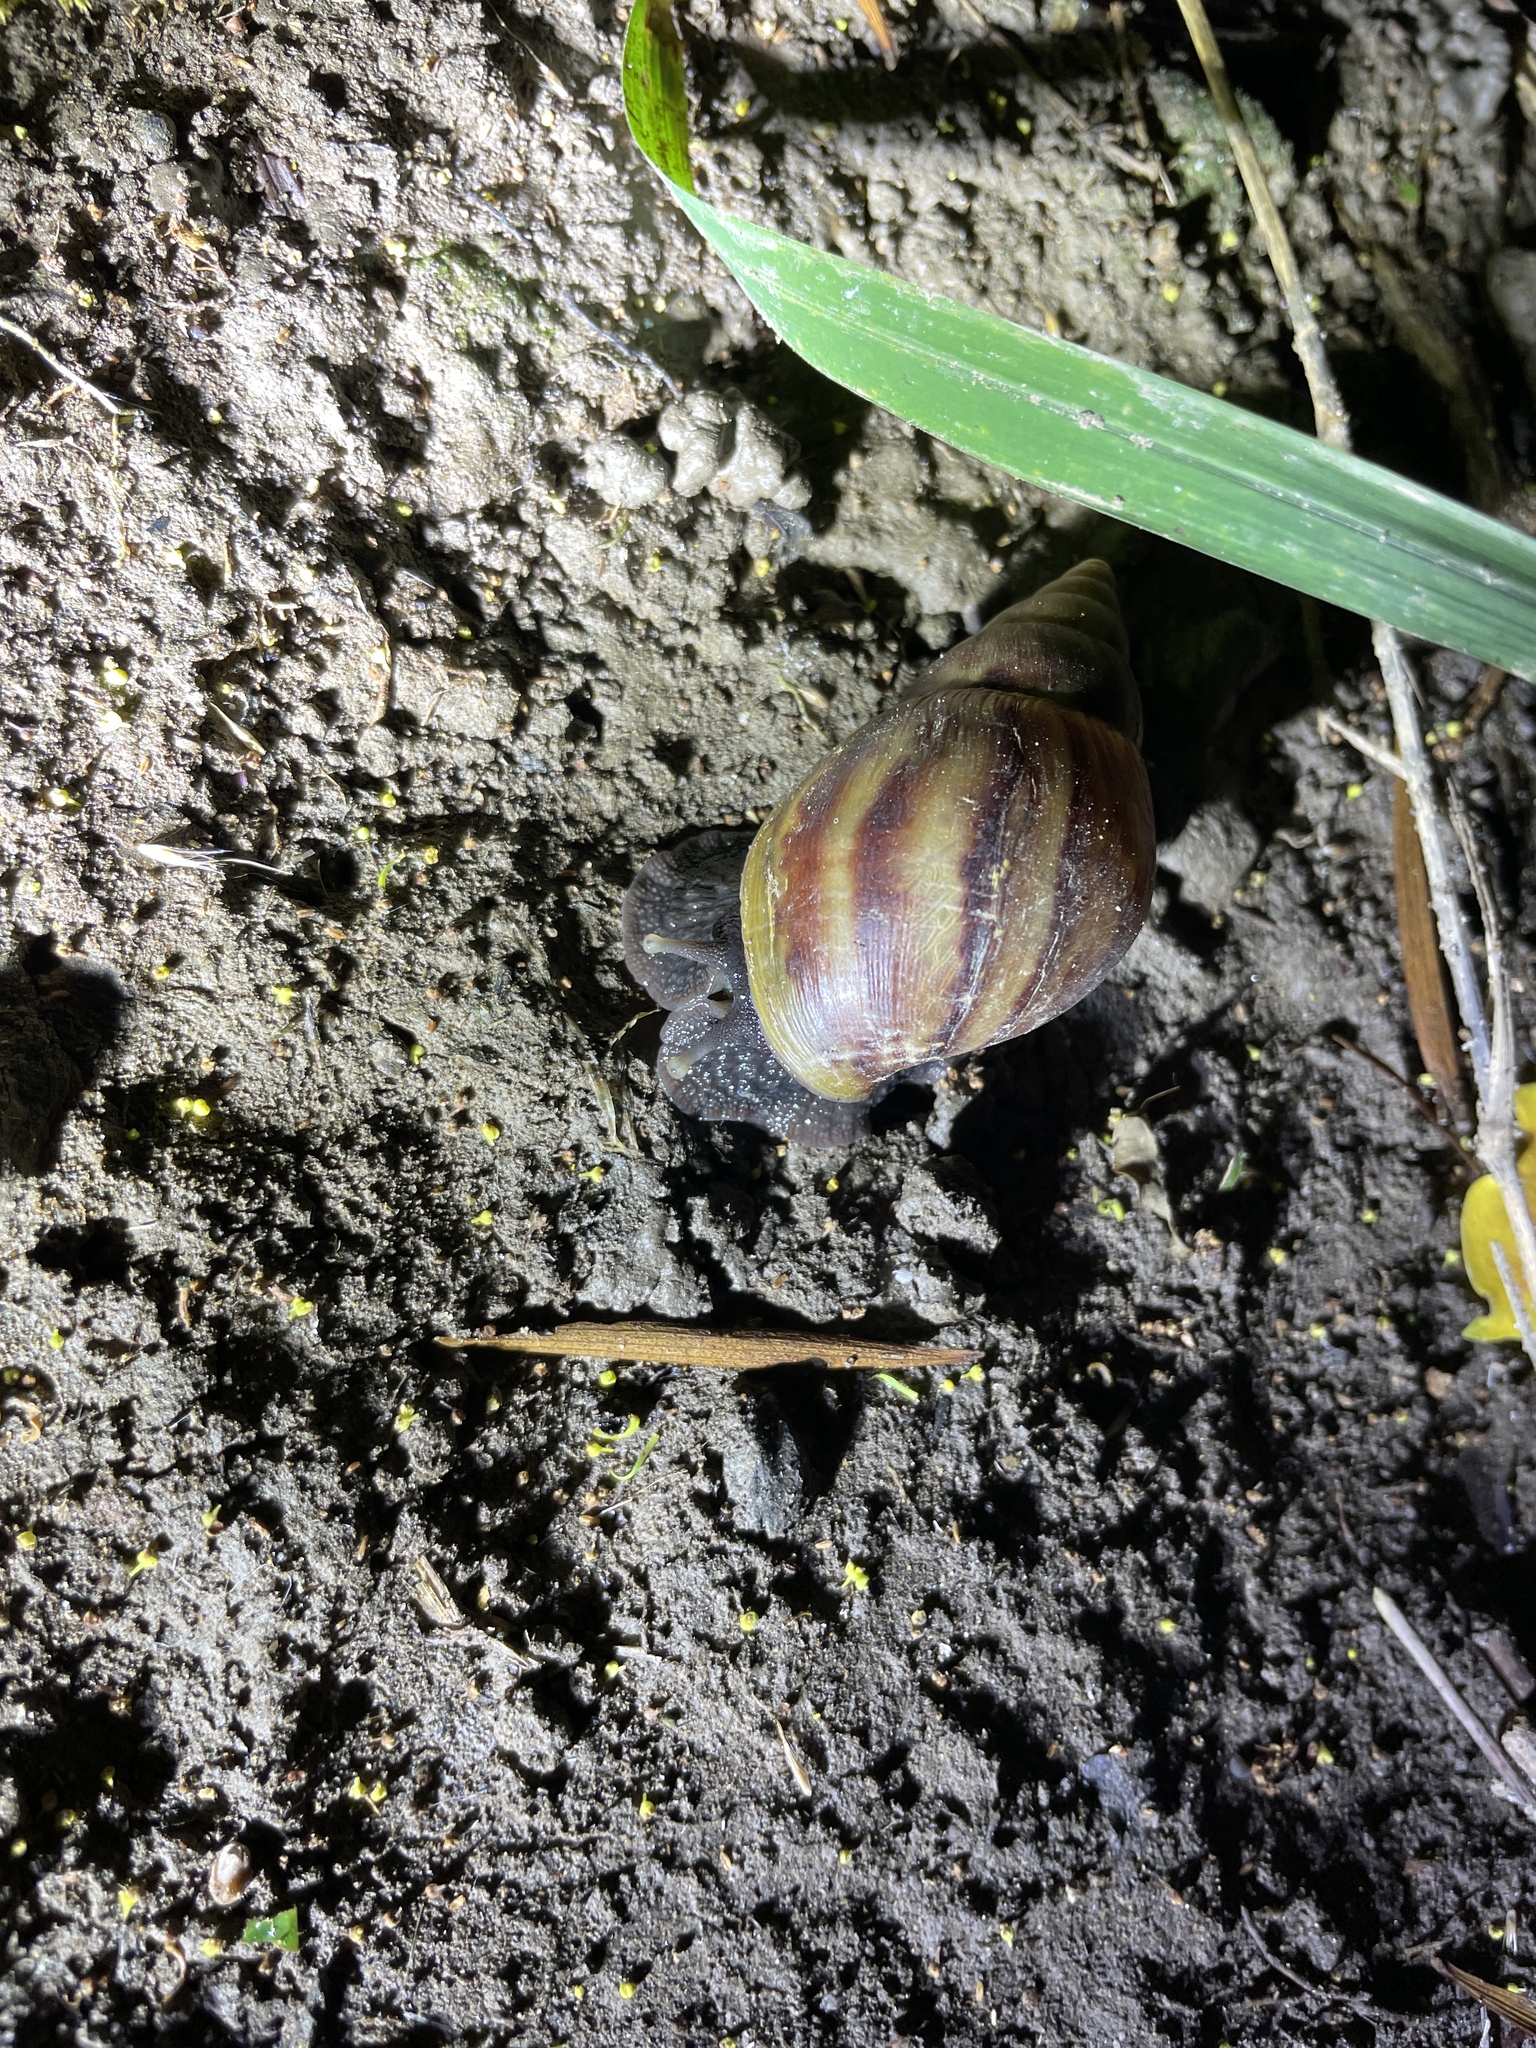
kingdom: Animalia
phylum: Mollusca
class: Gastropoda
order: Stylommatophora
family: Achatinidae
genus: Lissachatina
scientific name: Lissachatina fulica
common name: Giant african snail
